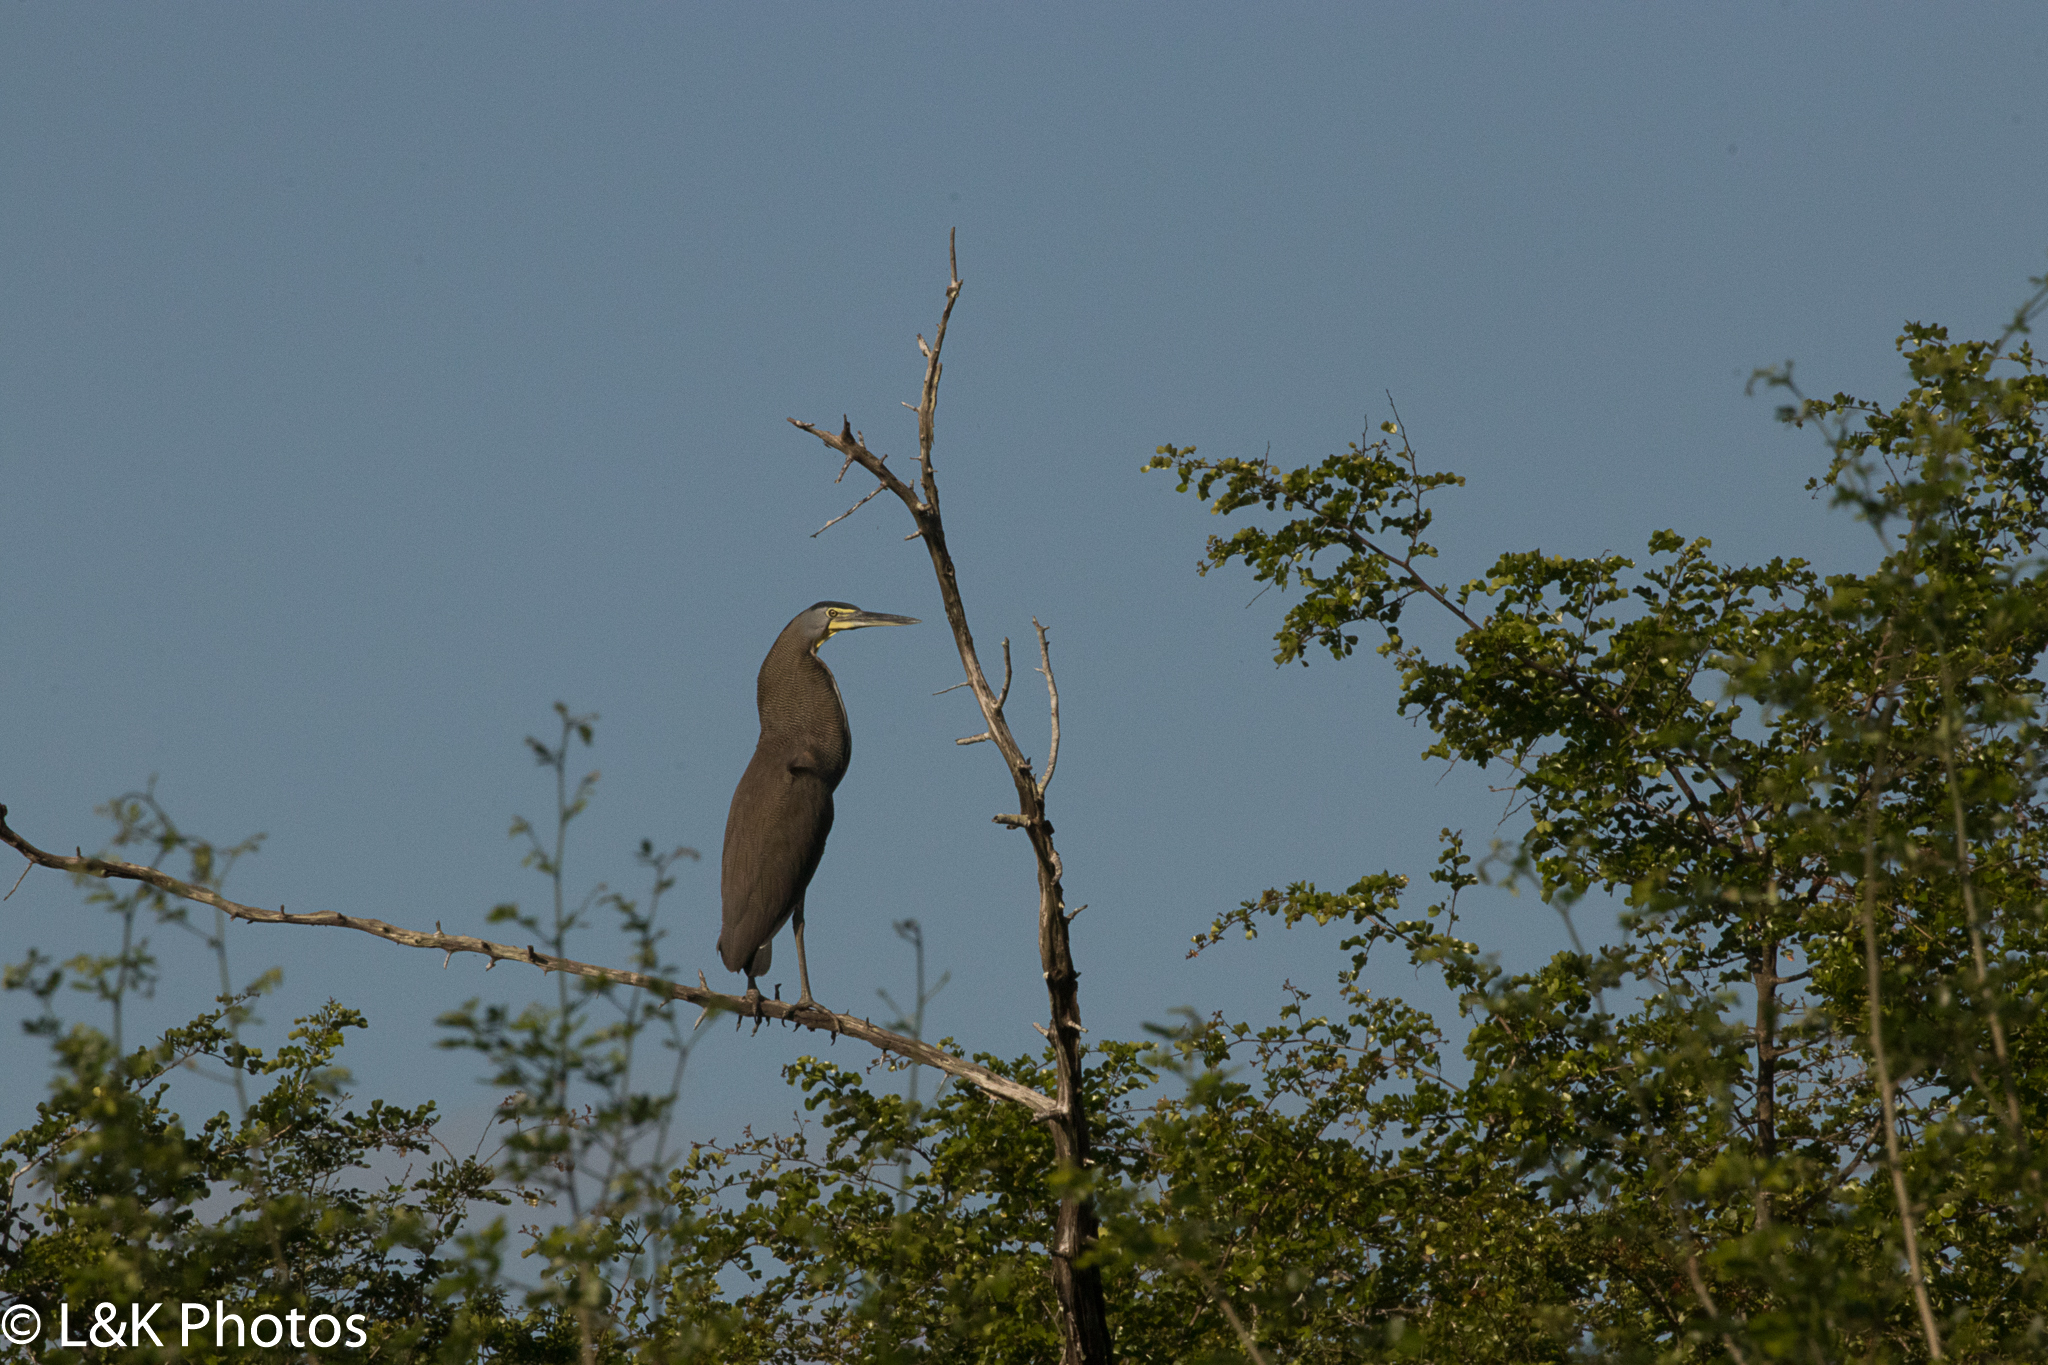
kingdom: Animalia
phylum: Chordata
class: Aves
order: Pelecaniformes
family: Ardeidae
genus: Tigrisoma
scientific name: Tigrisoma mexicanum
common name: Bare-throated tiger-heron
